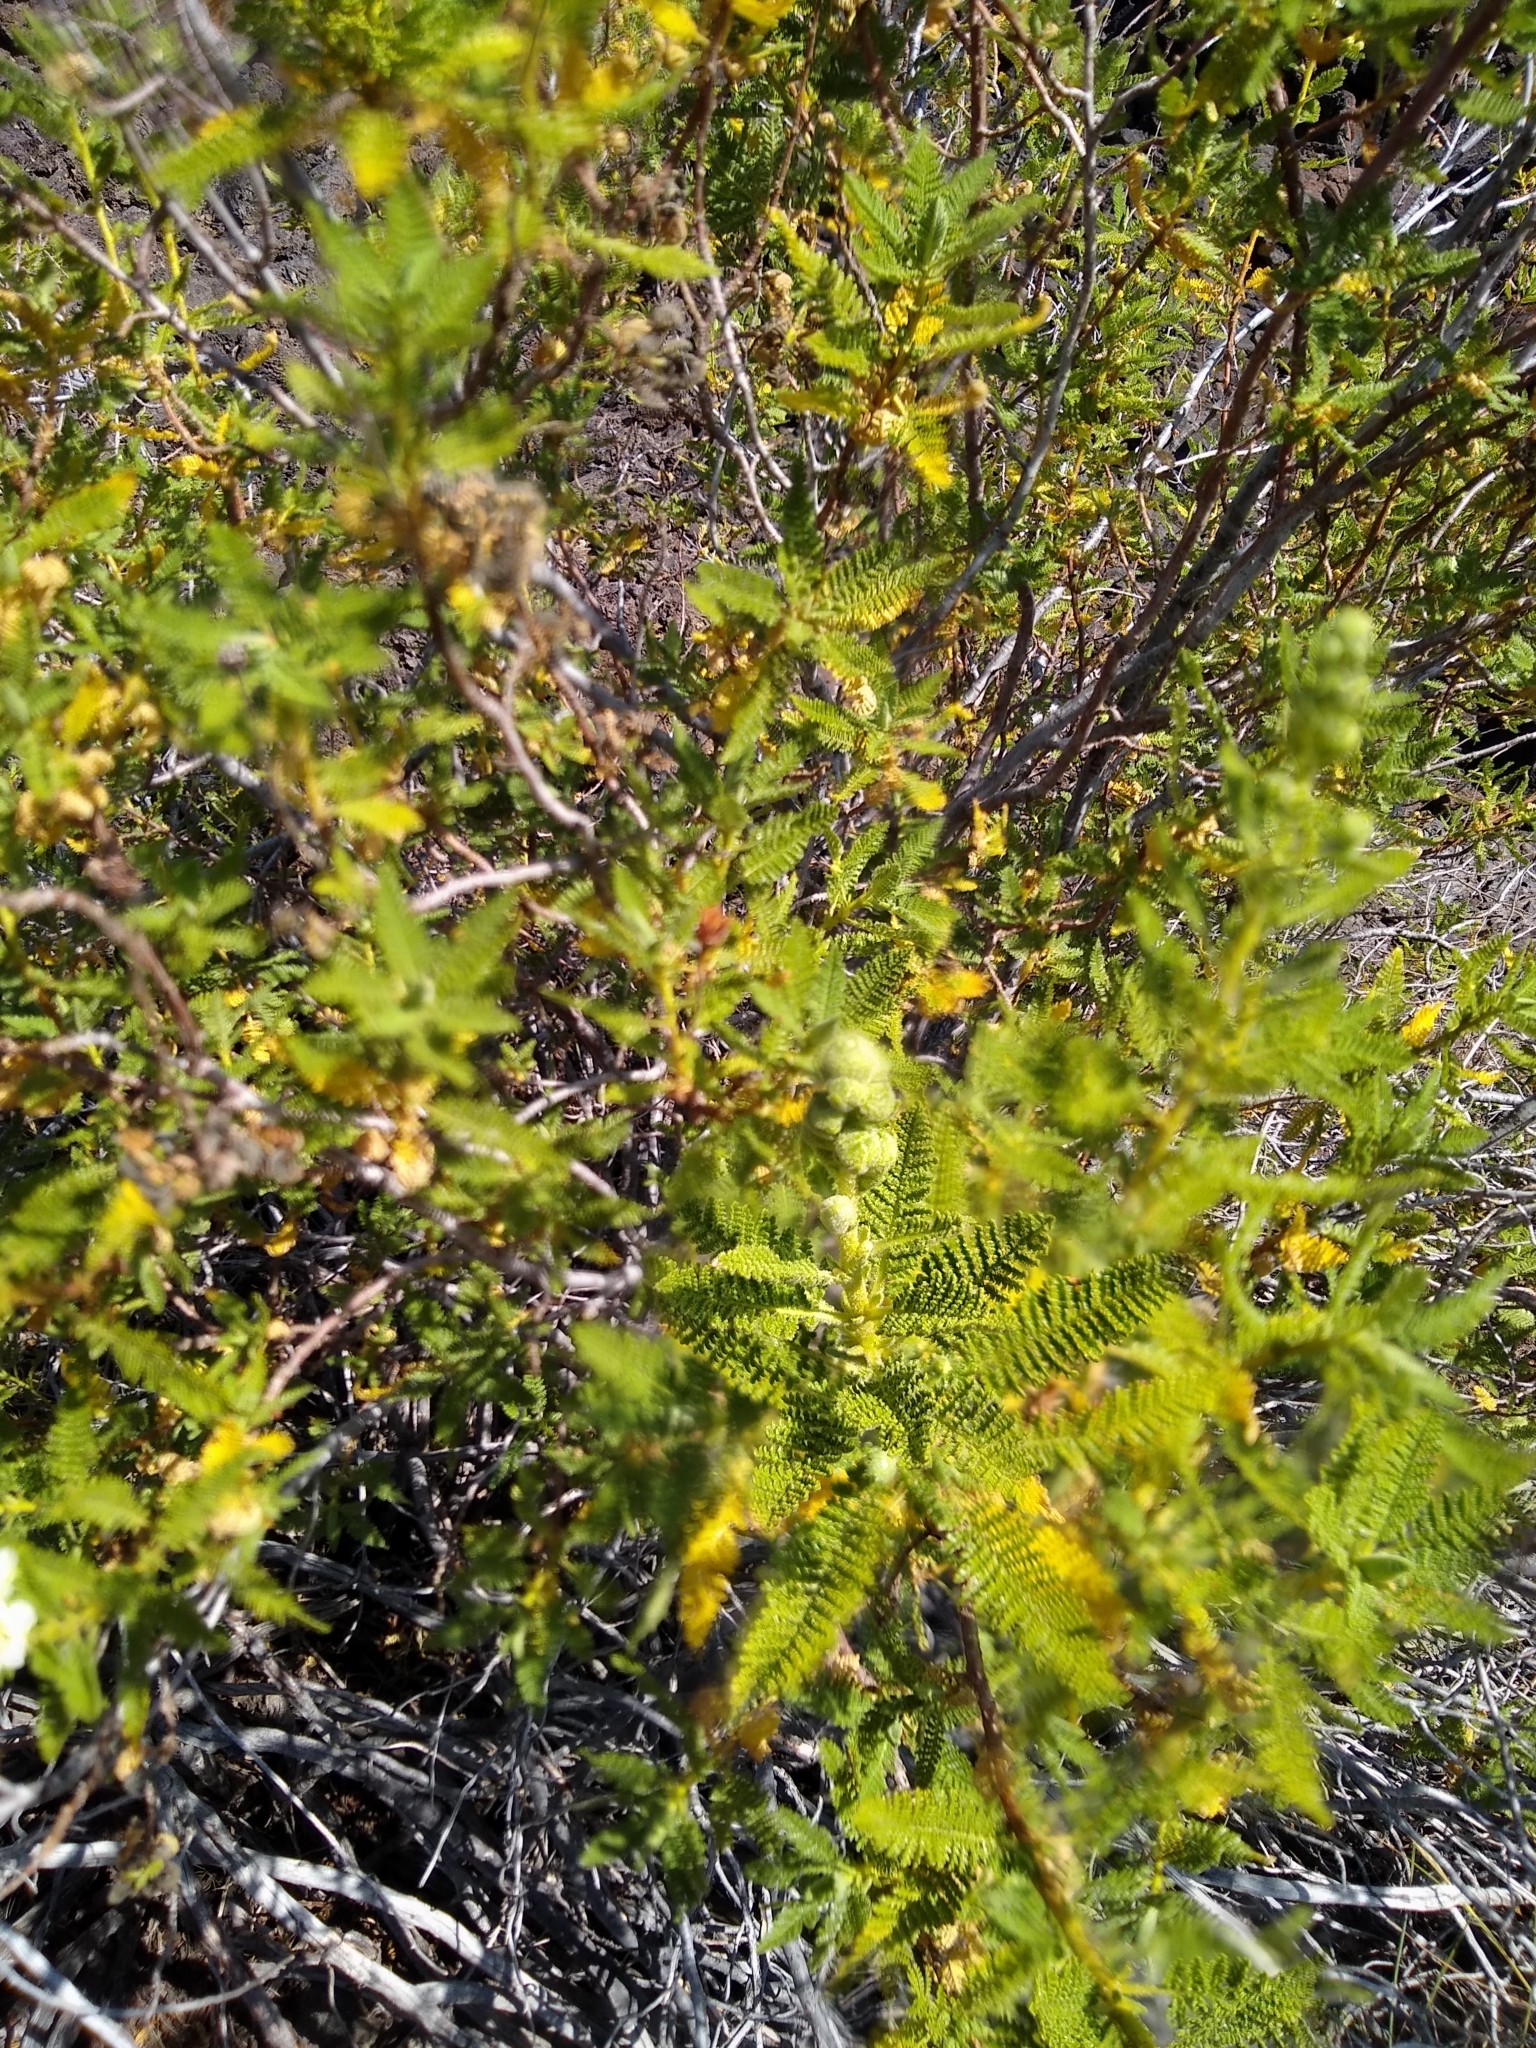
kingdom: Plantae
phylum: Tracheophyta
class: Magnoliopsida
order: Rosales
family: Rosaceae
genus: Chamaebatiaria
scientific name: Chamaebatiaria millefolium
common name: Fernbush
